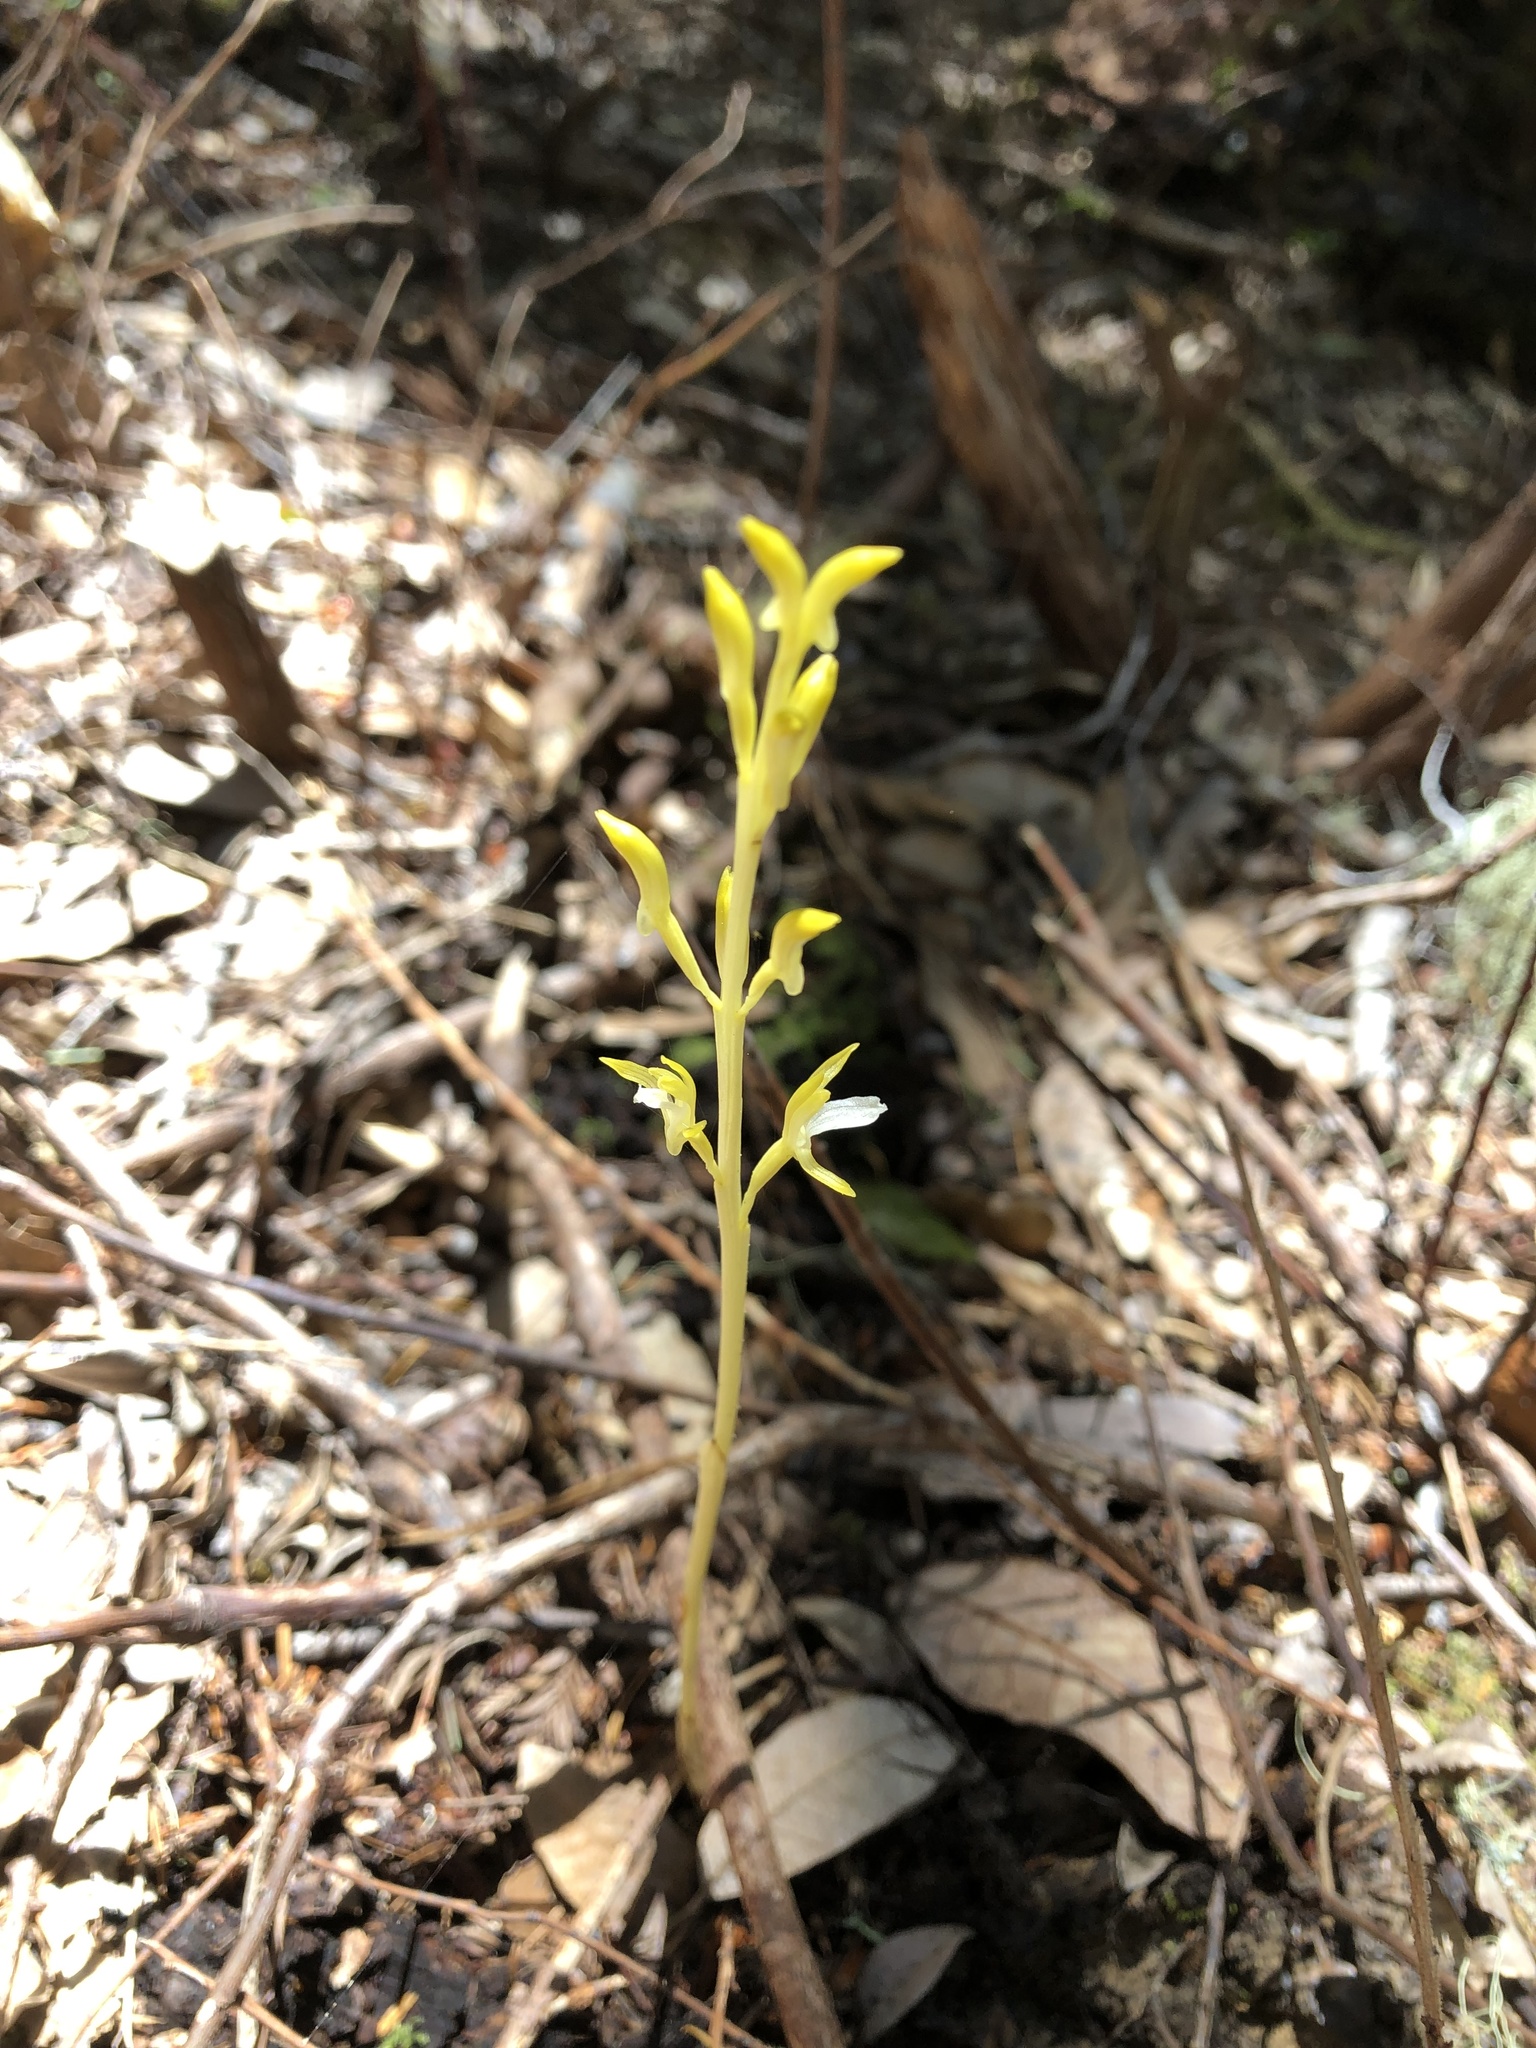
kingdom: Plantae
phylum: Tracheophyta
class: Liliopsida
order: Asparagales
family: Orchidaceae
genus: Corallorhiza
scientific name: Corallorhiza mertensiana
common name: Pacific coralroot
